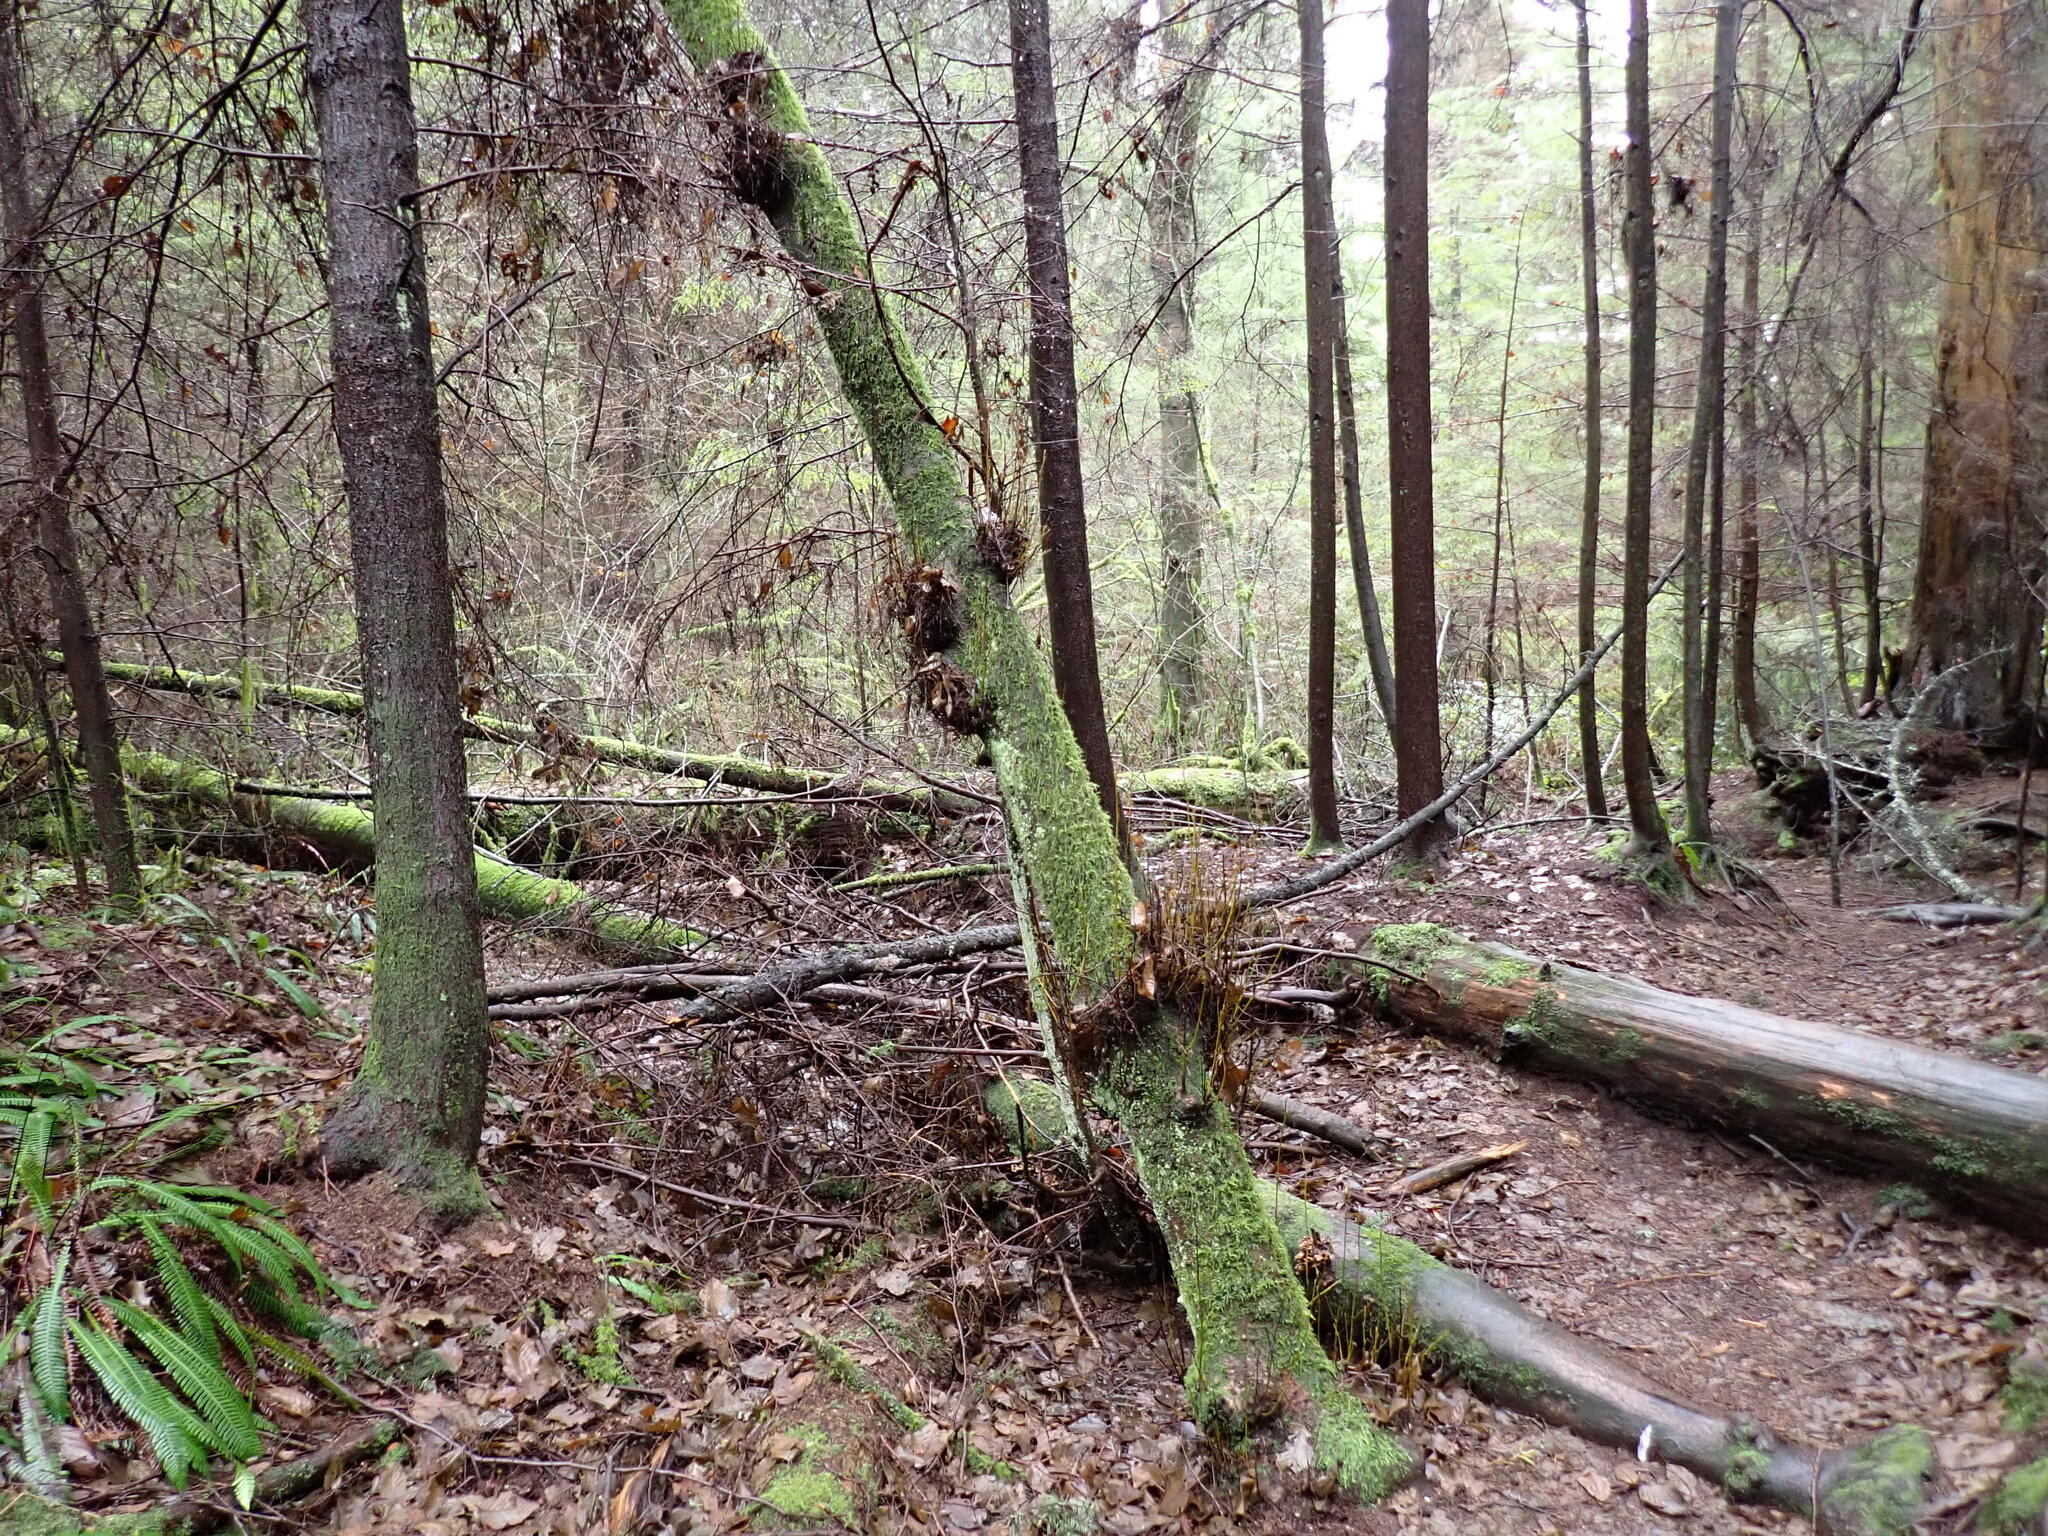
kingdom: Plantae
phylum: Tracheophyta
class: Magnoliopsida
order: Fagales
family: Betulaceae
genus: Alnus
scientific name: Alnus rubra
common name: Red alder
